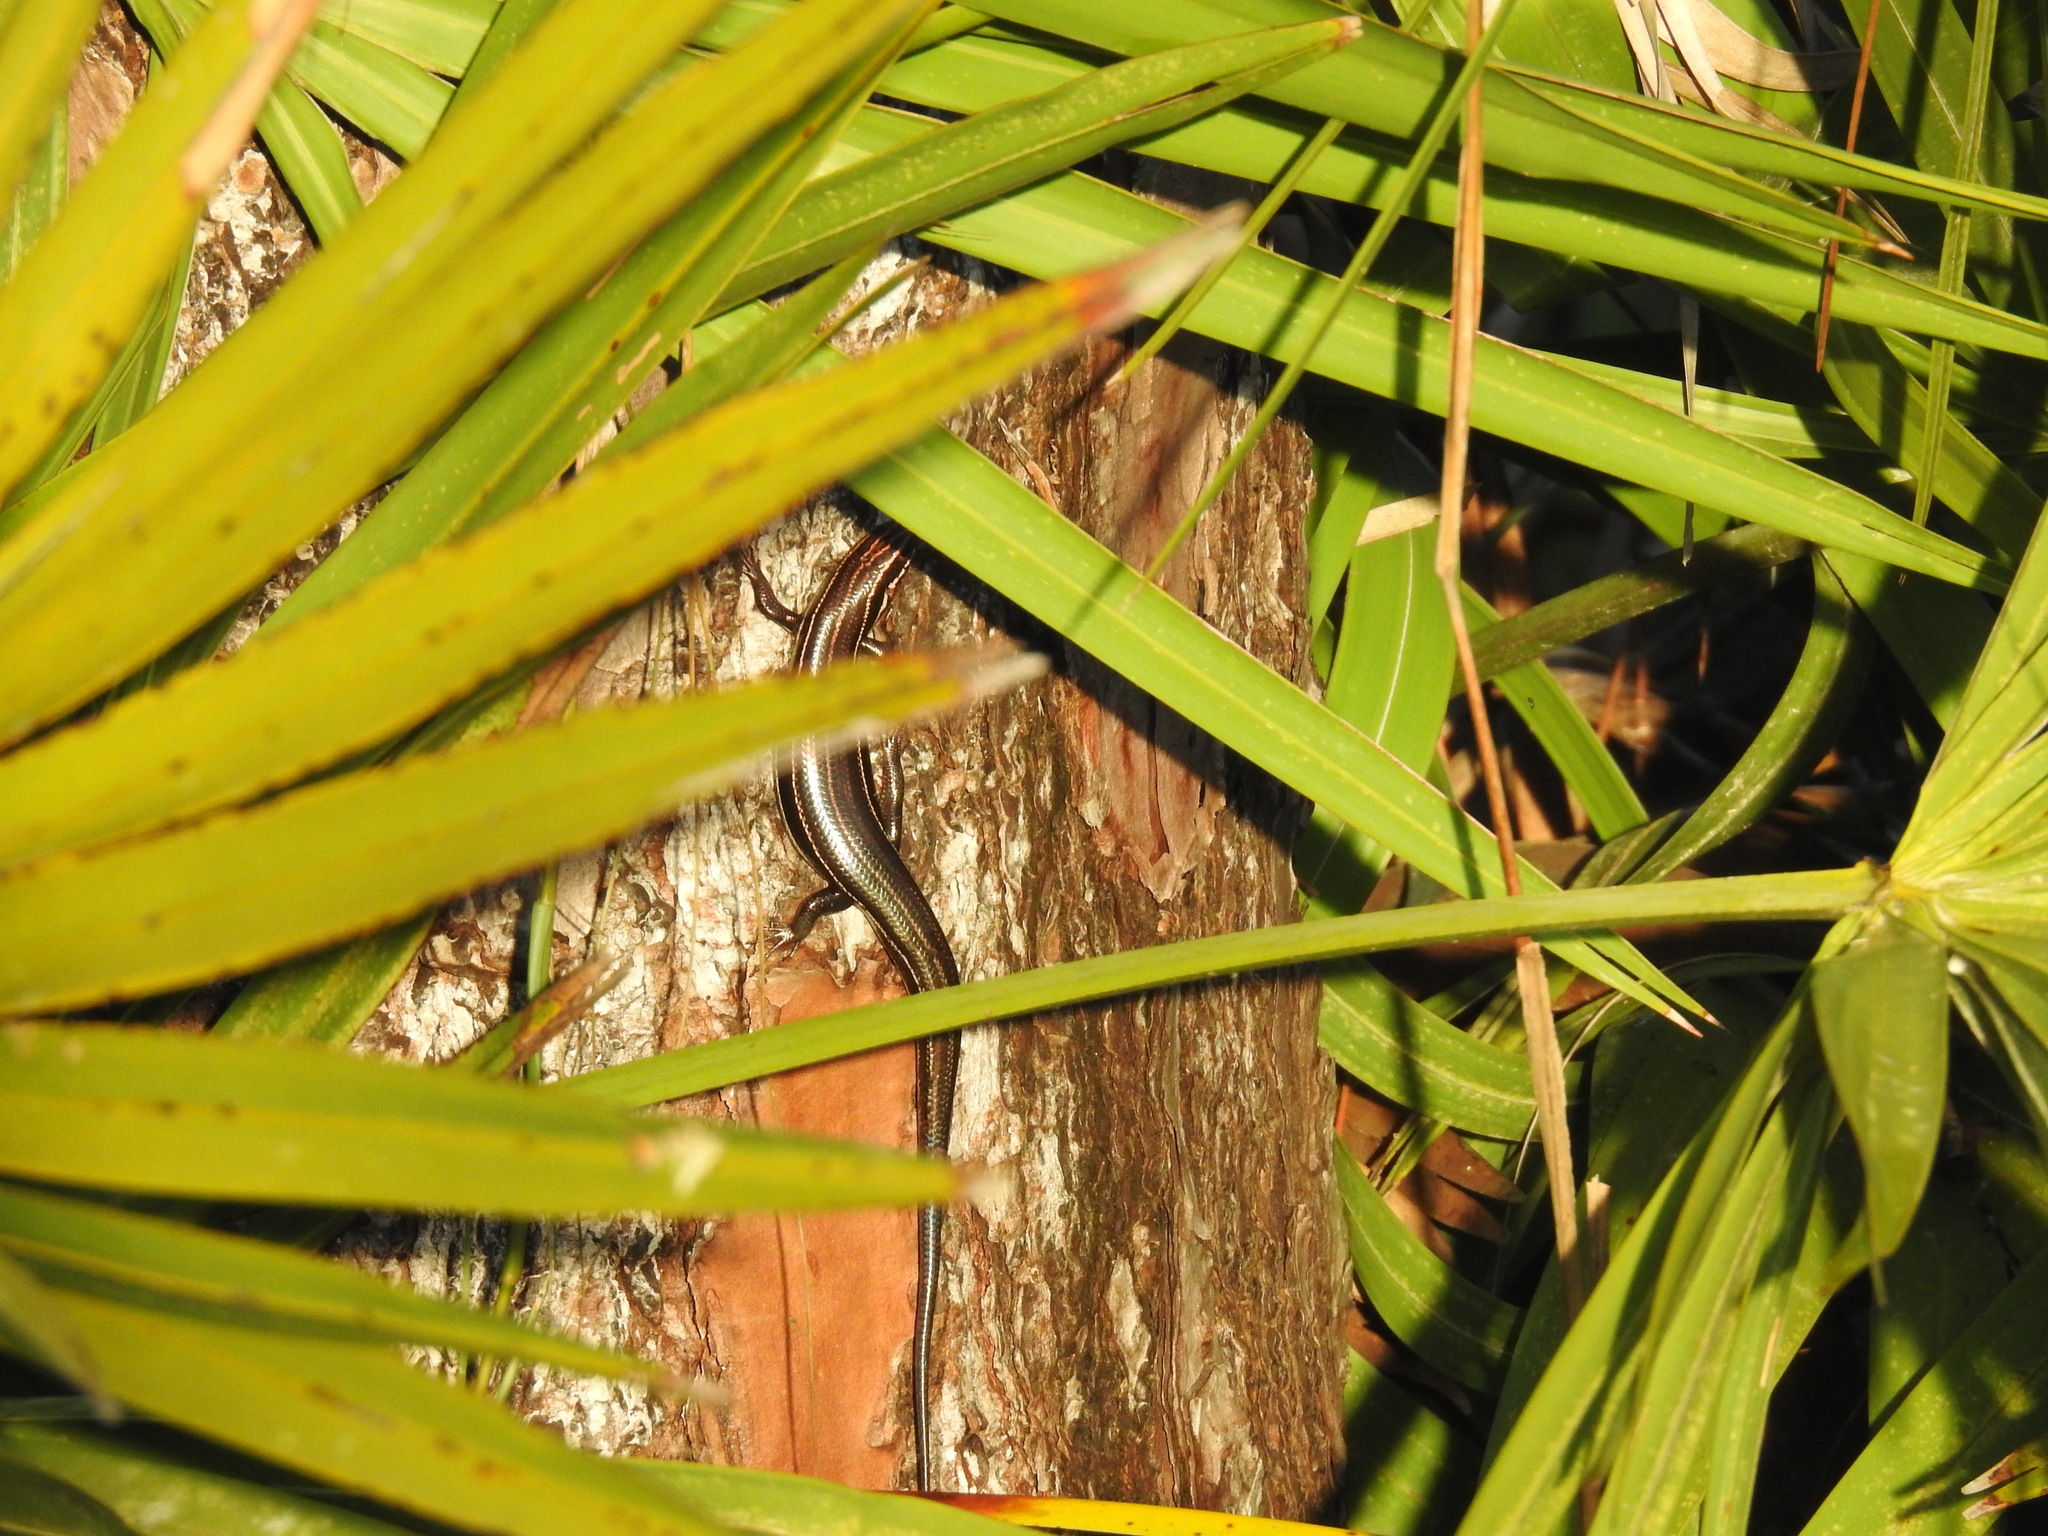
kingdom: Animalia
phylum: Chordata
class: Squamata
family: Scincidae
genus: Plestiodon
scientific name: Plestiodon inexpectatus
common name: Southeastern five-lined skink
